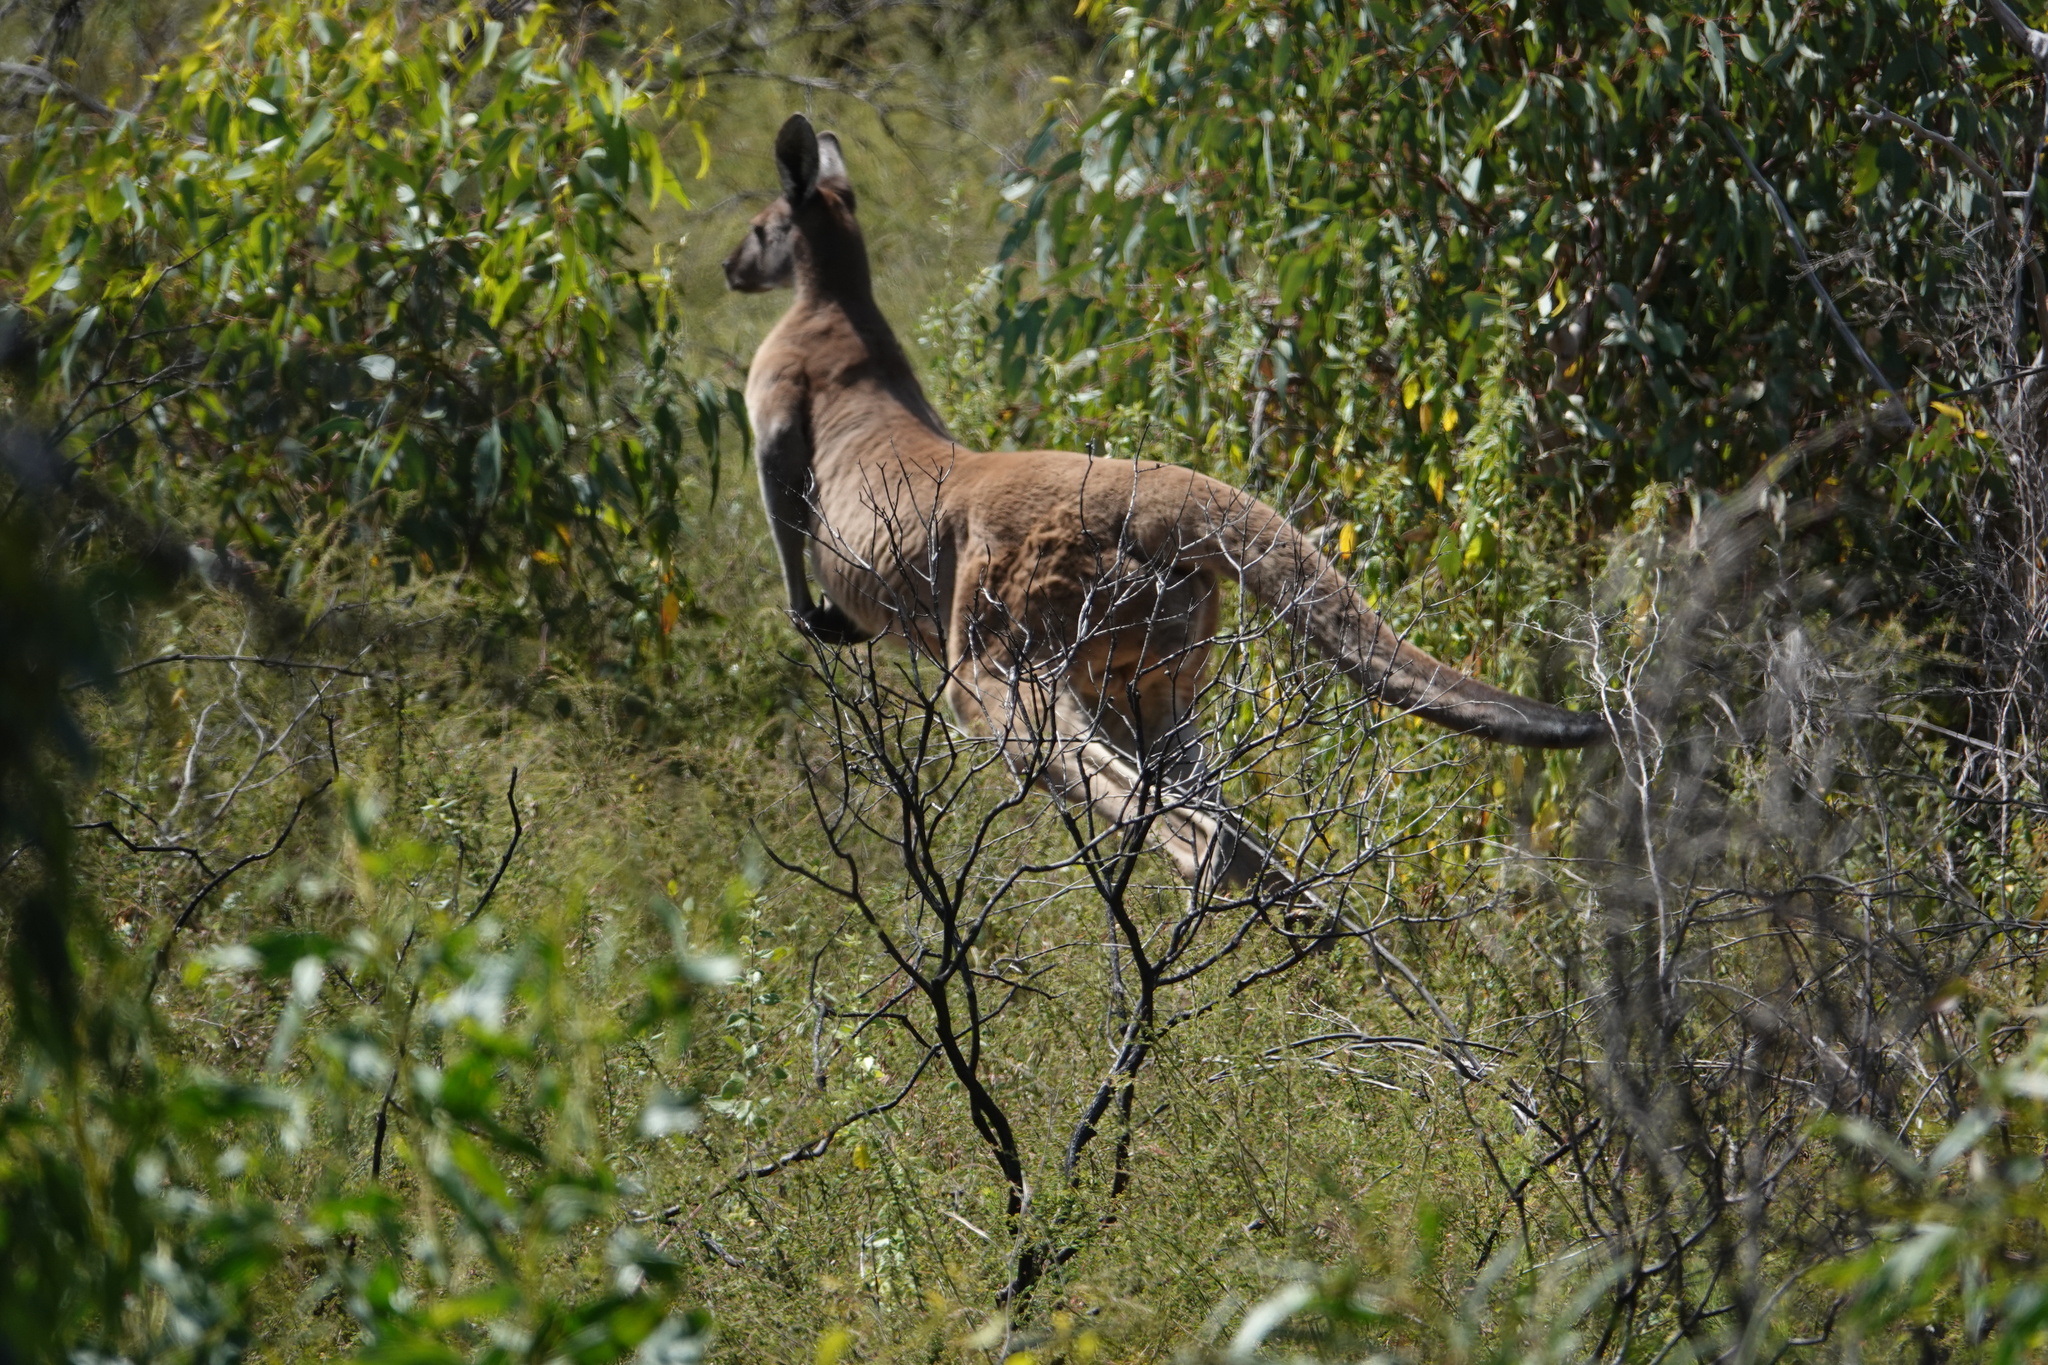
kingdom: Animalia
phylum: Chordata
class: Mammalia
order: Diprotodontia
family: Macropodidae
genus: Macropus
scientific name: Macropus fuliginosus
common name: Western grey kangaroo
